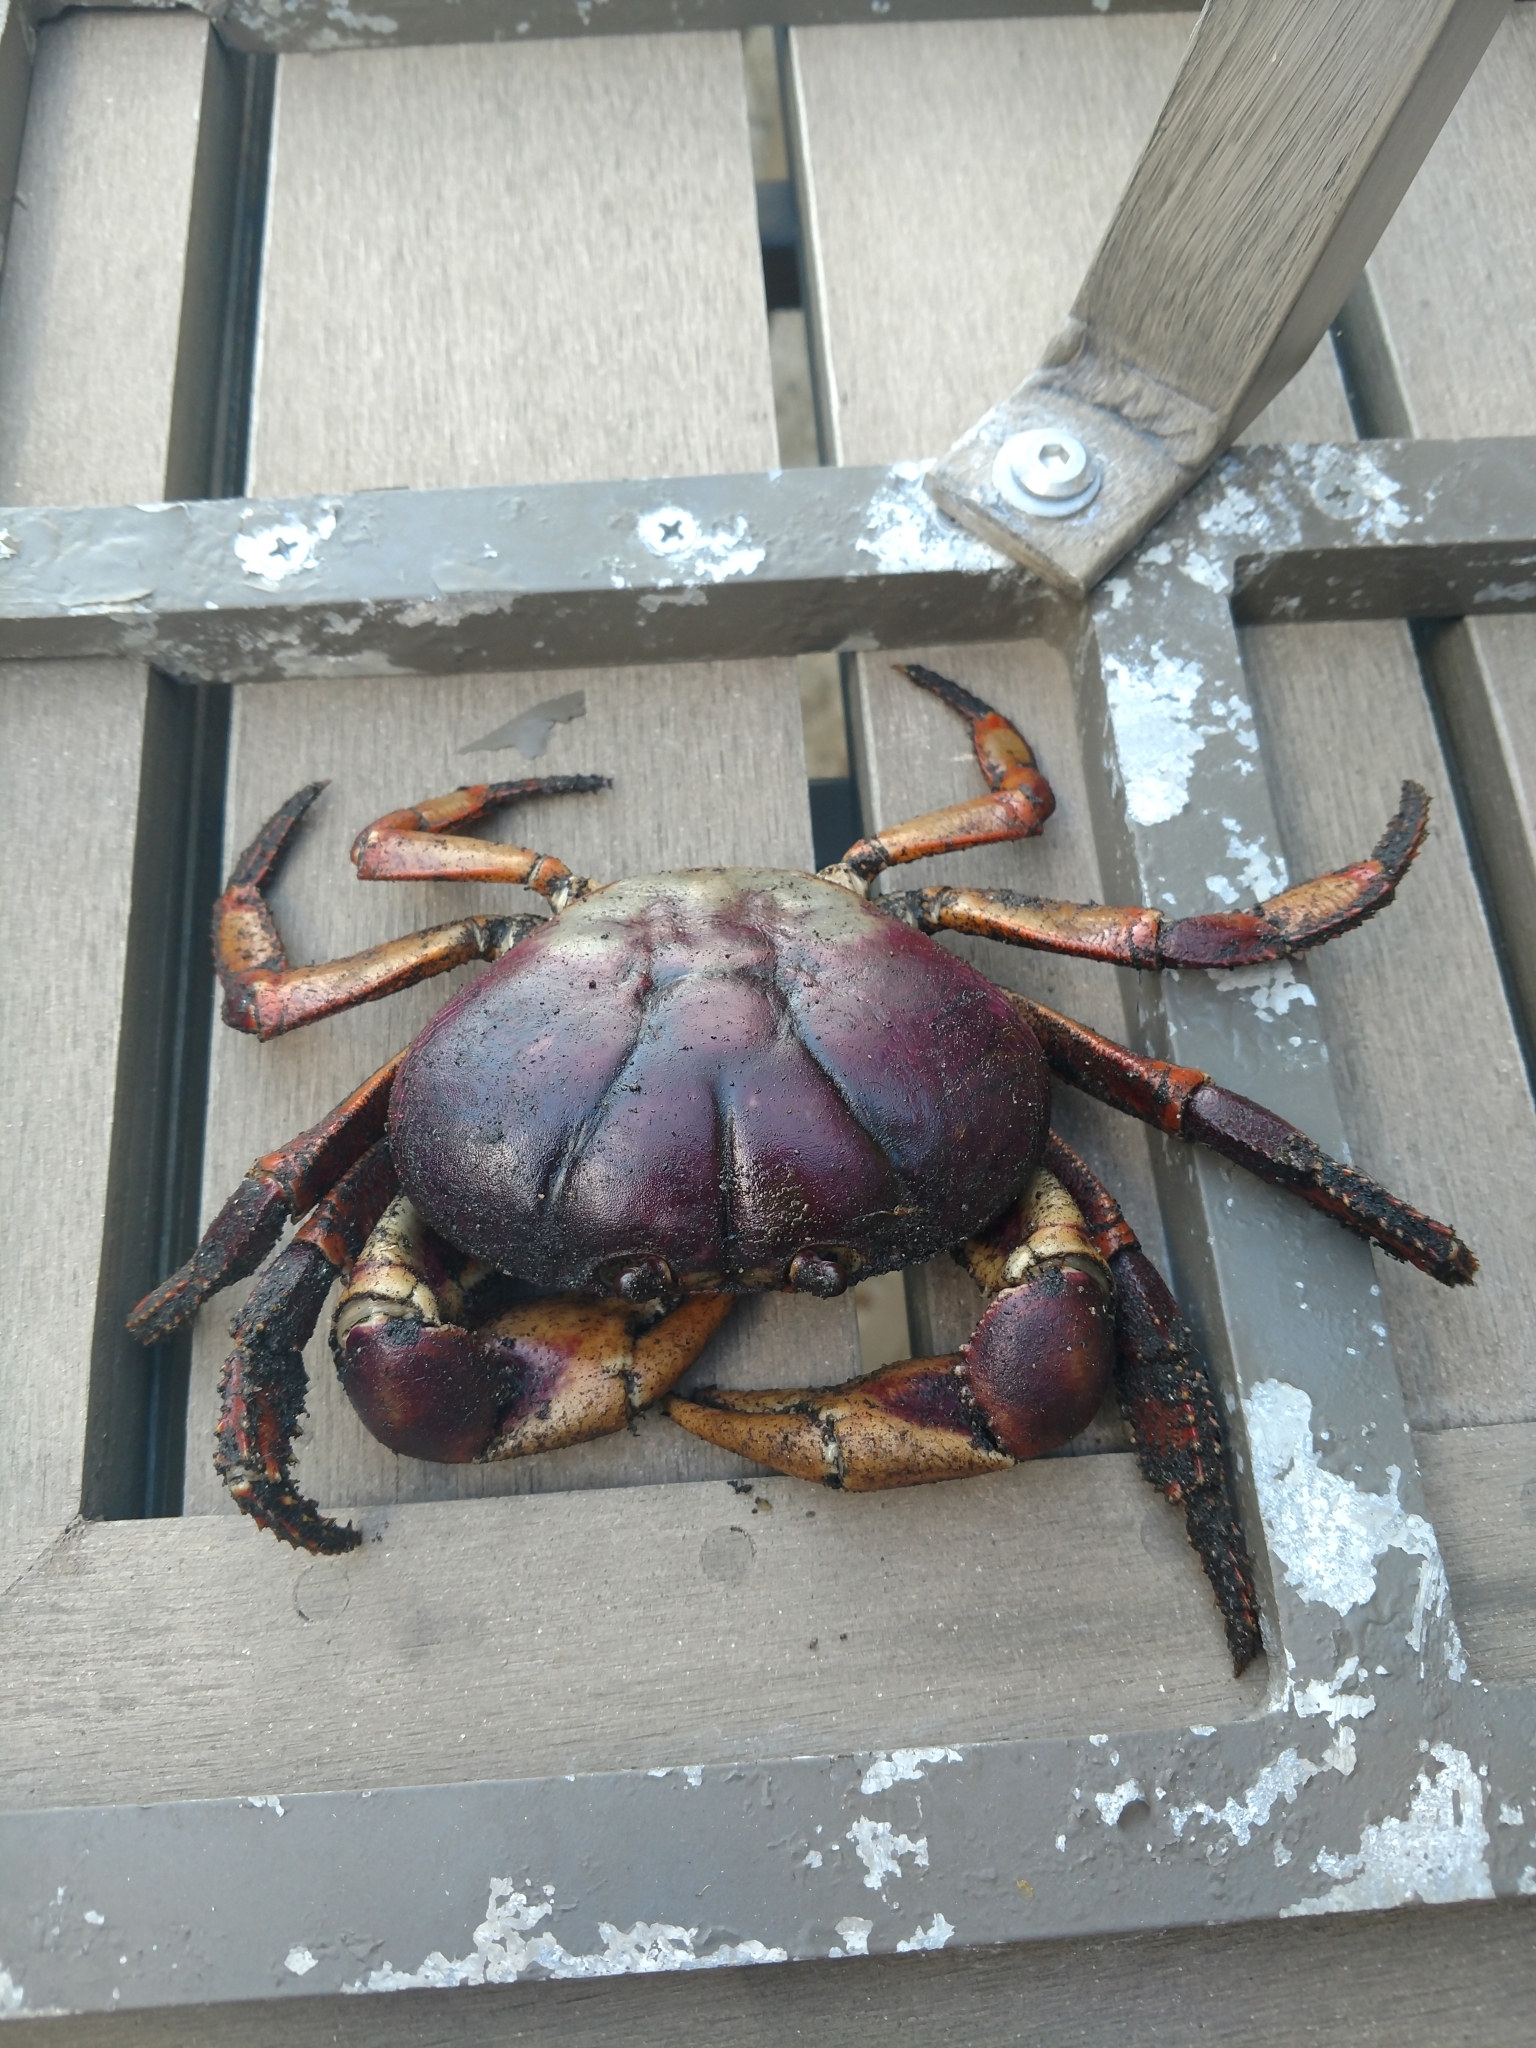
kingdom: Animalia
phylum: Arthropoda
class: Malacostraca
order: Decapoda
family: Gecarcinidae
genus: Gecarcinus
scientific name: Gecarcinus ruricola
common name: Black land crab
